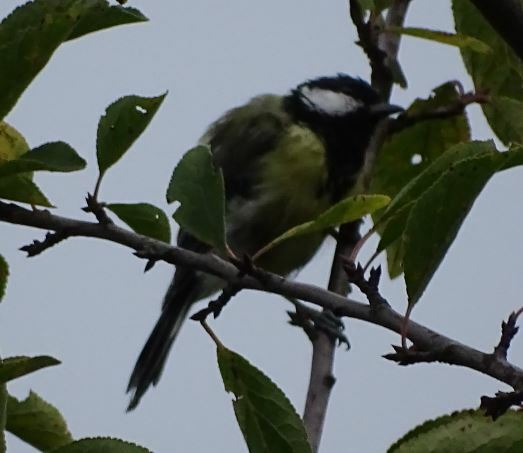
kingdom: Animalia
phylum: Chordata
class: Aves
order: Passeriformes
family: Paridae
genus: Parus
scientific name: Parus major
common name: Great tit
